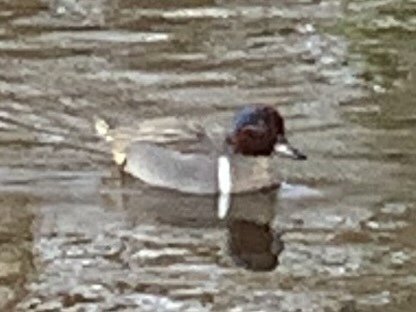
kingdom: Animalia
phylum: Chordata
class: Aves
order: Anseriformes
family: Anatidae
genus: Anas
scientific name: Anas carolinensis
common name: Green-winged teal
